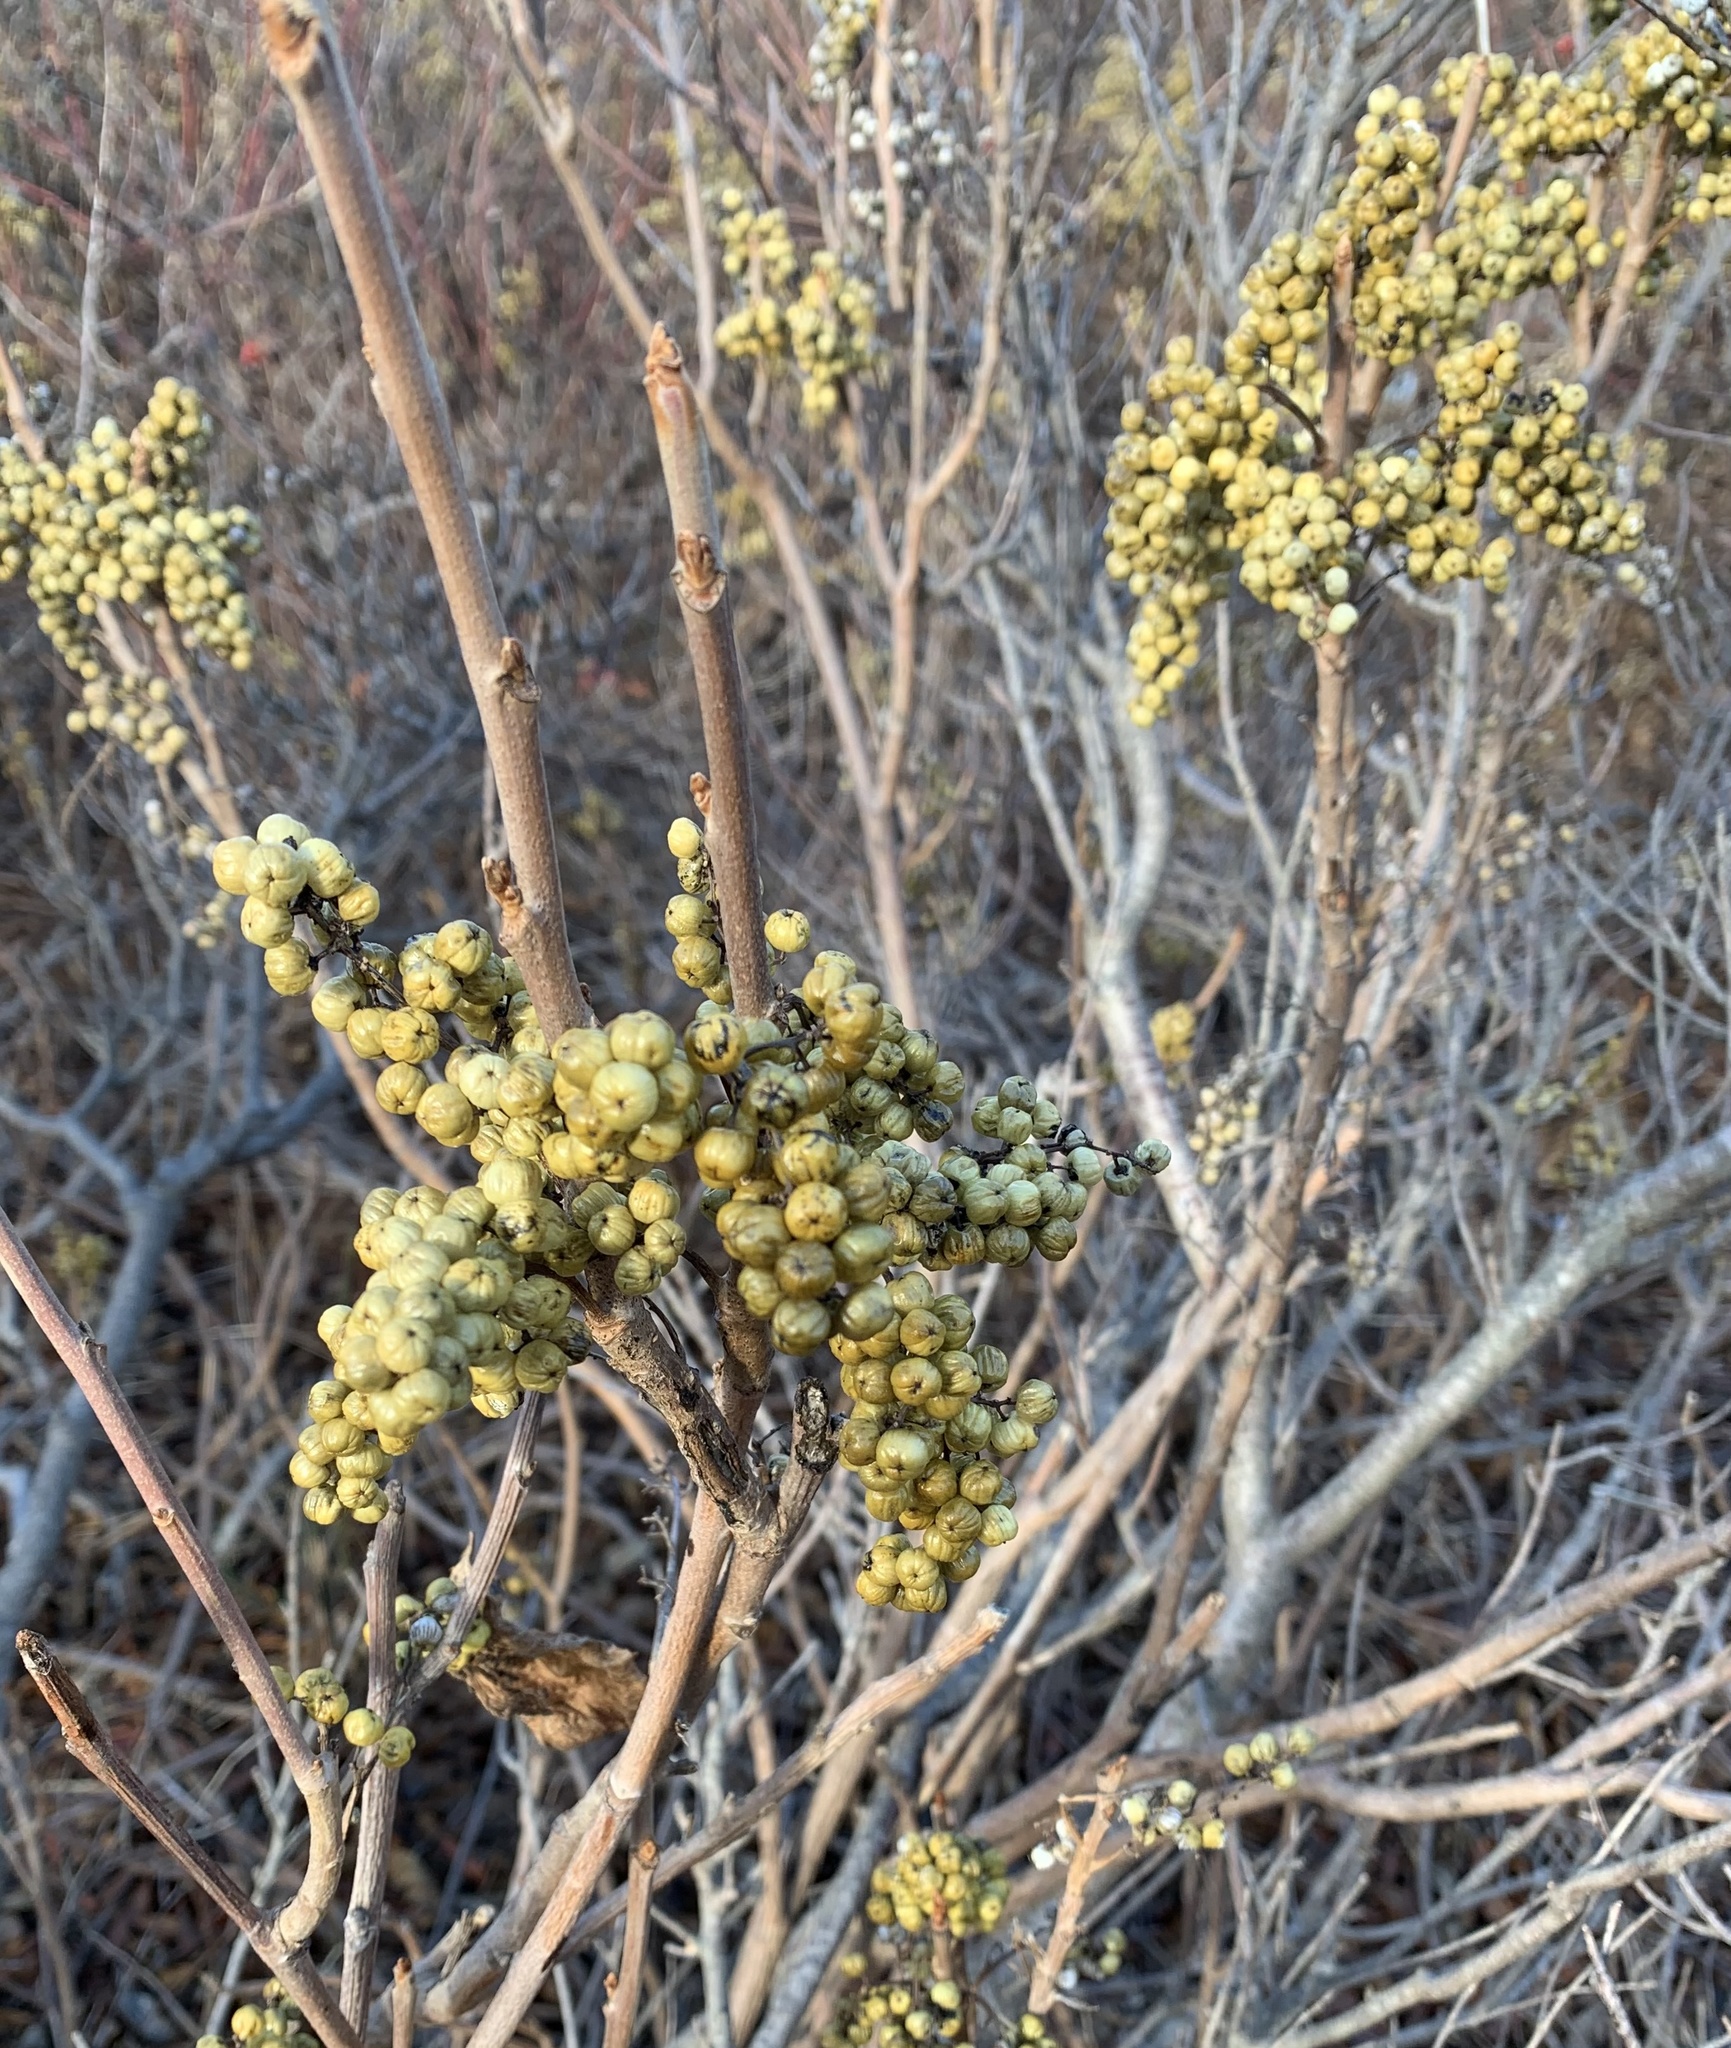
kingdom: Plantae
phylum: Tracheophyta
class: Magnoliopsida
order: Sapindales
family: Anacardiaceae
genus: Toxicodendron
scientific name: Toxicodendron rydbergii
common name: Rydberg's poison-ivy
